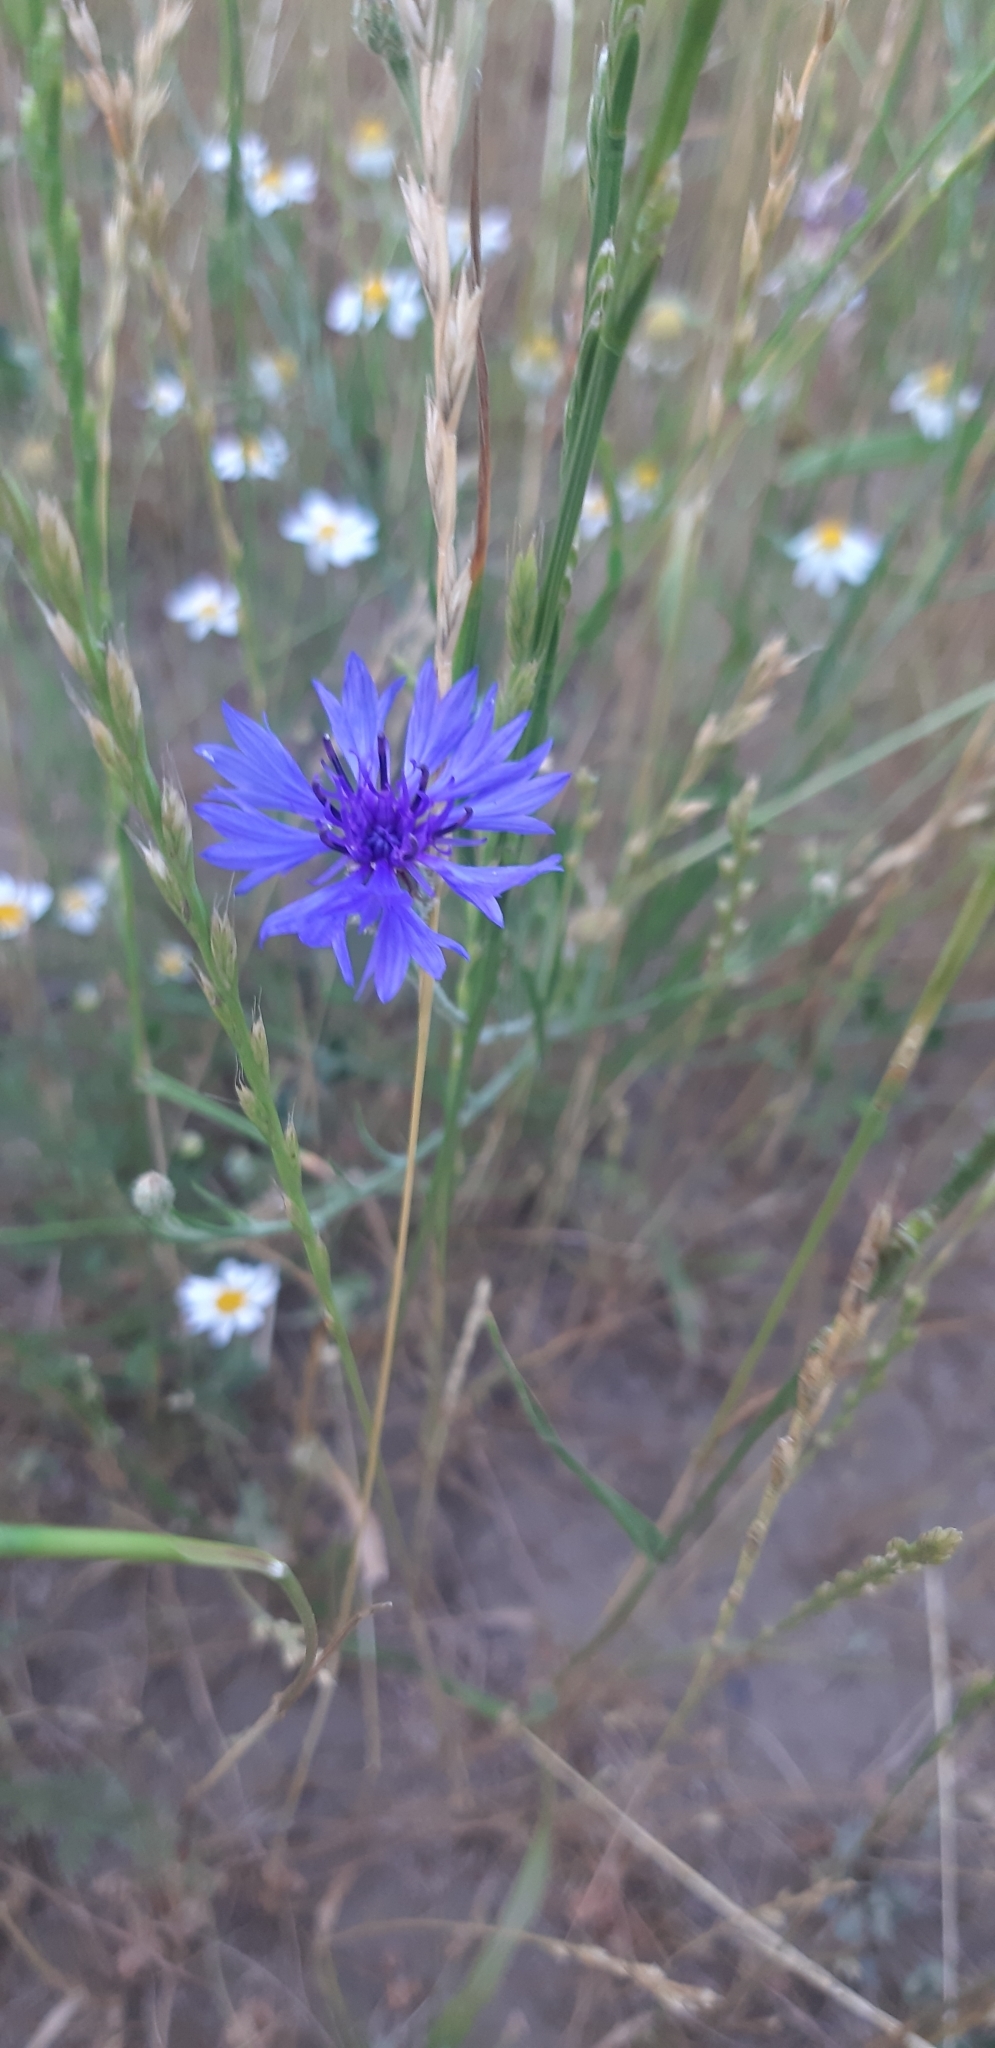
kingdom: Plantae
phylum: Tracheophyta
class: Magnoliopsida
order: Asterales
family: Asteraceae
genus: Centaurea
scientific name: Centaurea cyanus
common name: Cornflower
